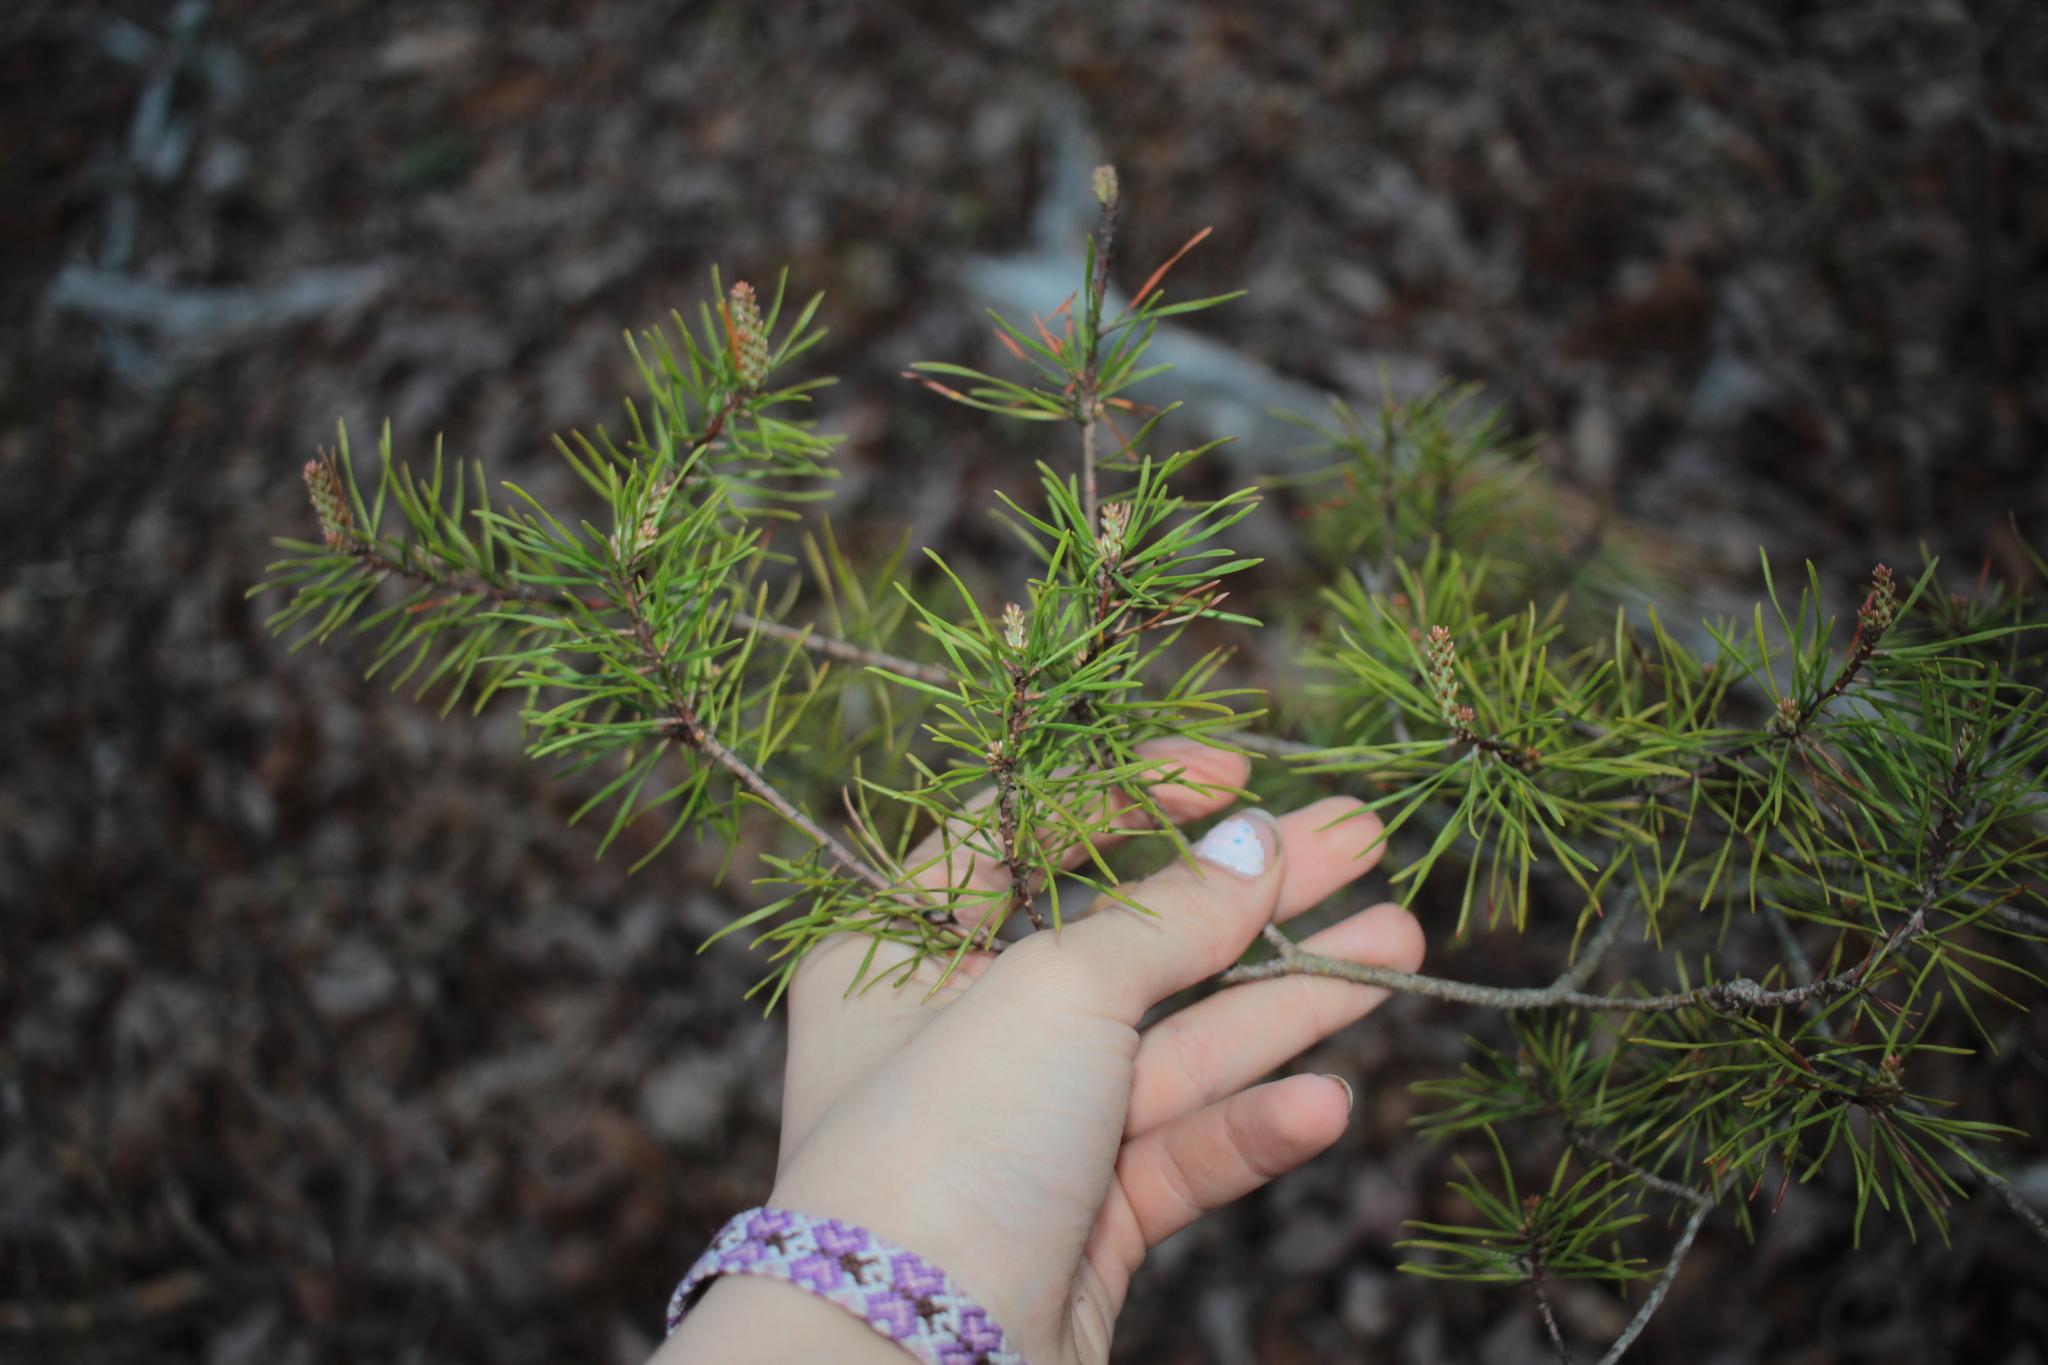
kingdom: Plantae
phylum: Tracheophyta
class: Pinopsida
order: Pinales
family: Pinaceae
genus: Pinus
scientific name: Pinus virginiana
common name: Scrub pine
